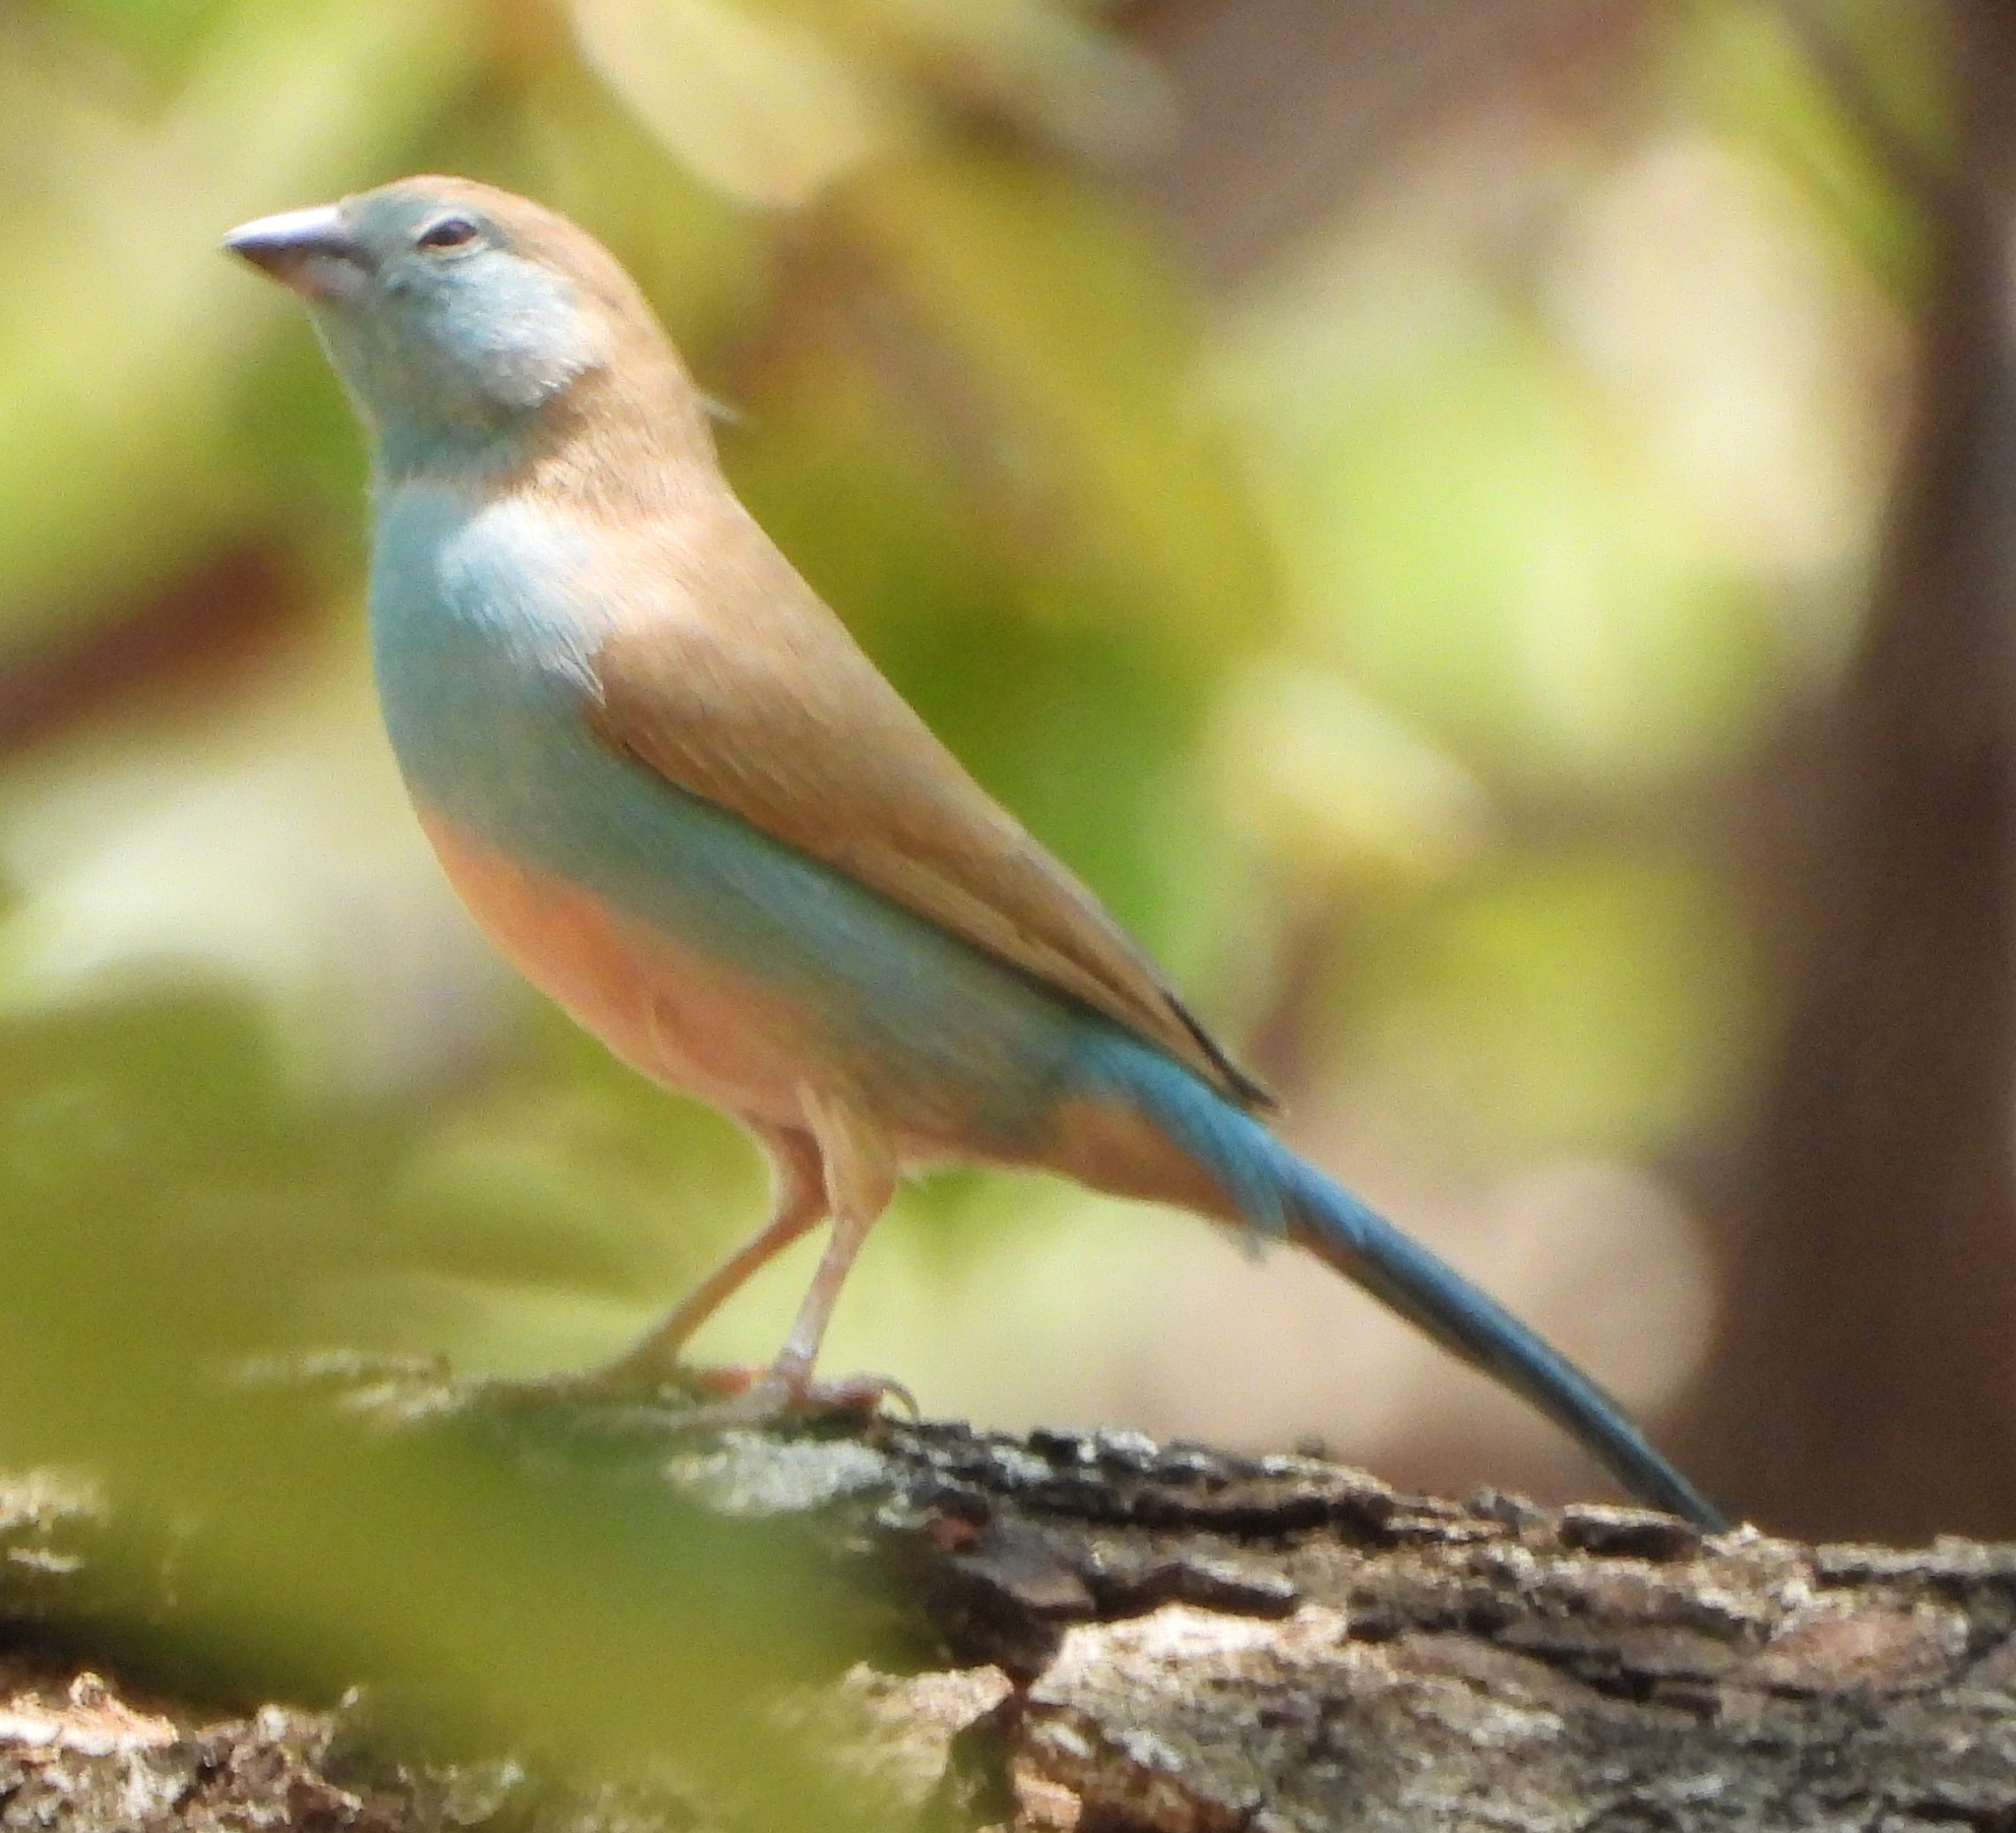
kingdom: Animalia
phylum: Chordata
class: Aves
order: Passeriformes
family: Estrildidae
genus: Uraeginthus
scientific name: Uraeginthus angolensis
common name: Blue waxbill
